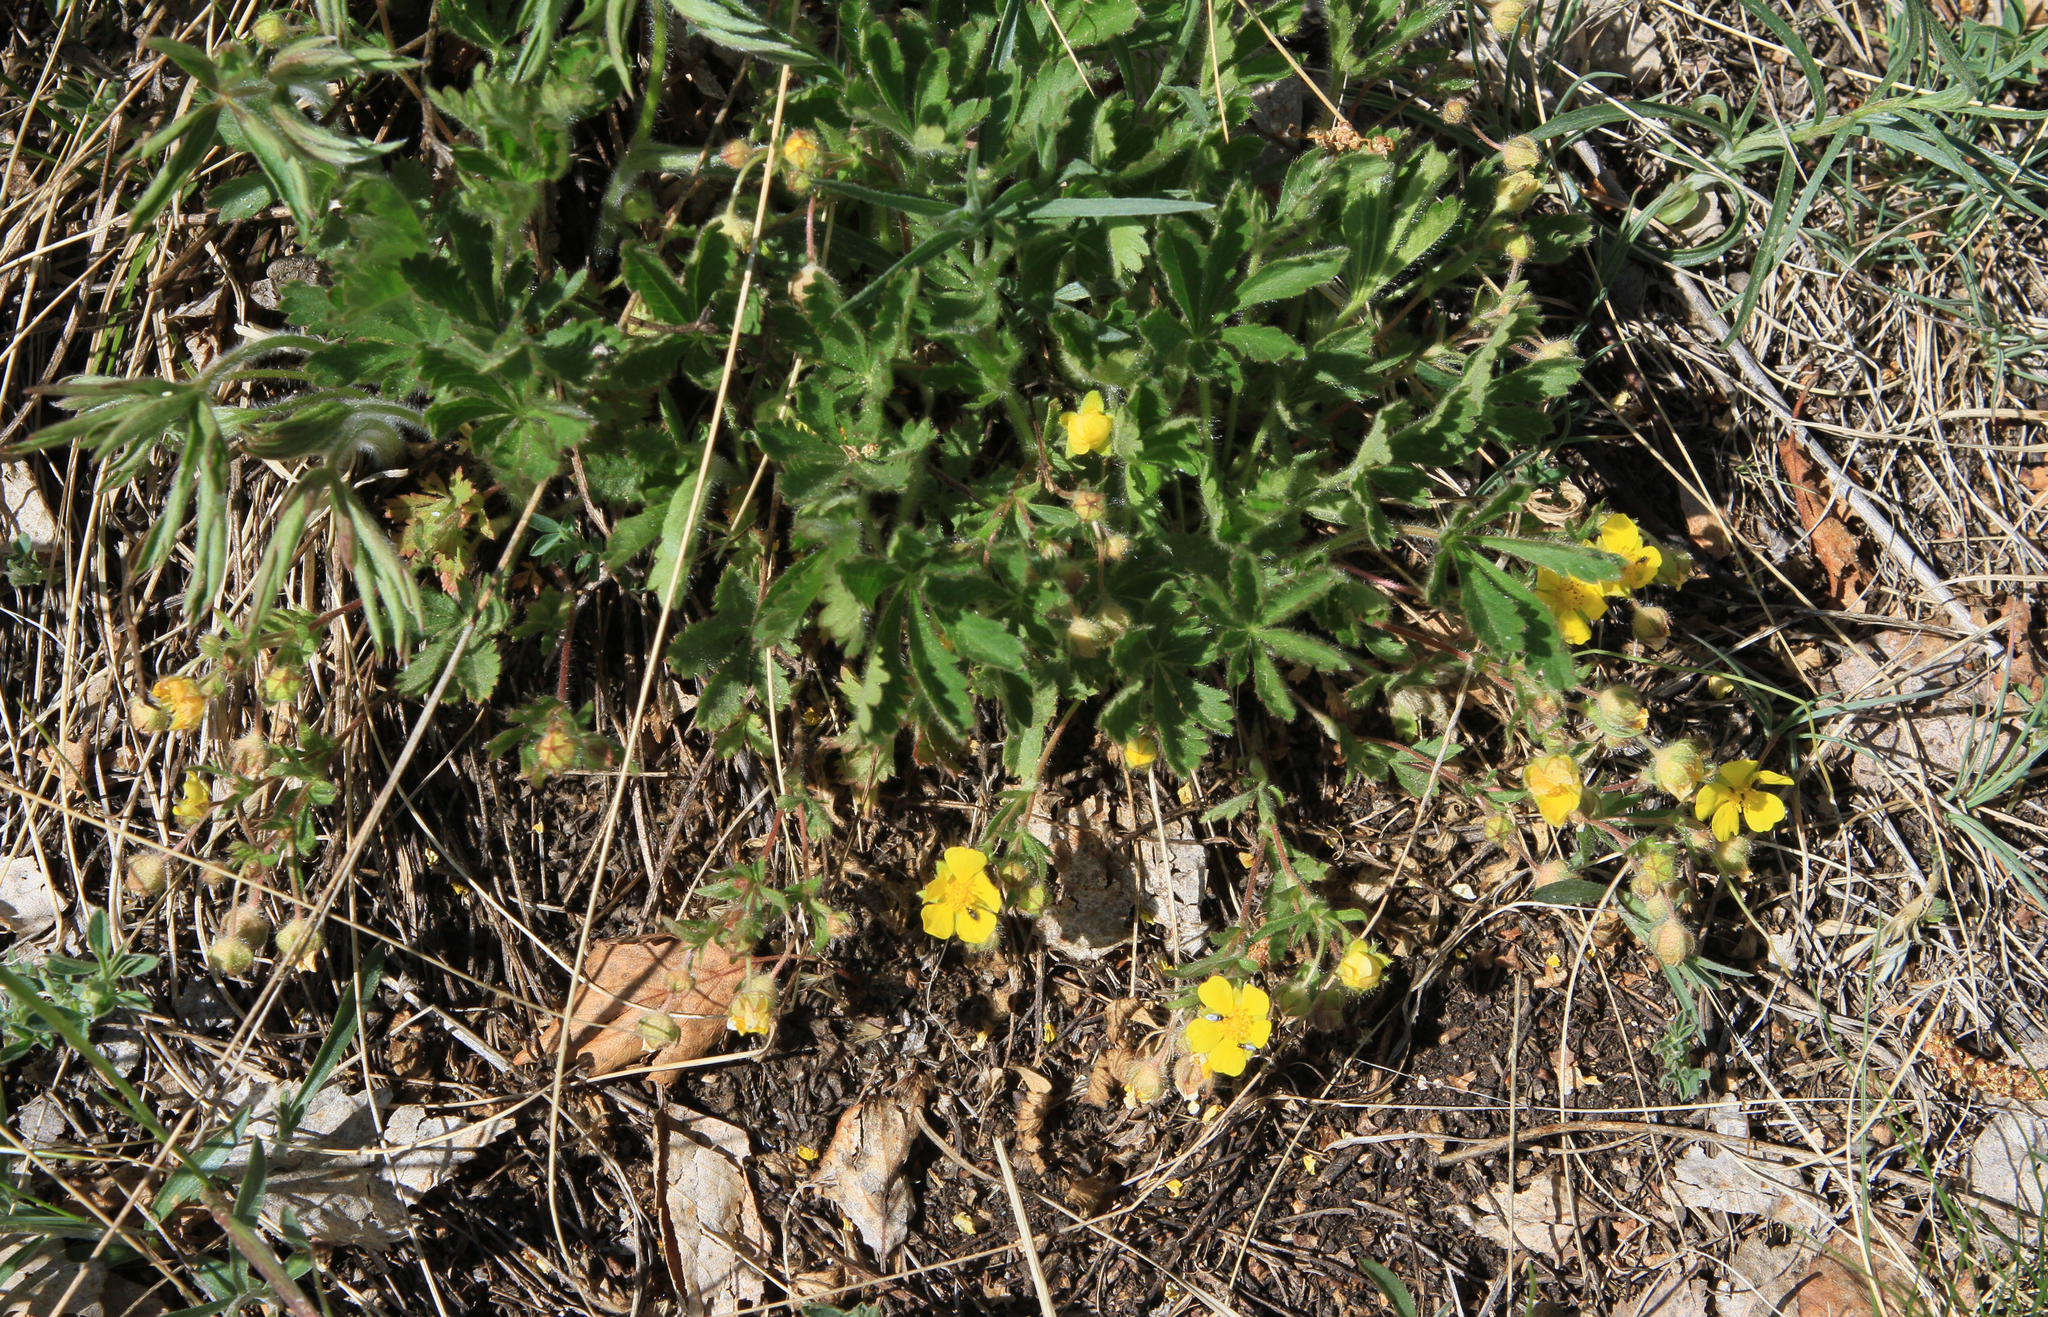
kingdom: Plantae
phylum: Tracheophyta
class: Magnoliopsida
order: Rosales
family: Rosaceae
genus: Potentilla
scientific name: Potentilla humifusa
